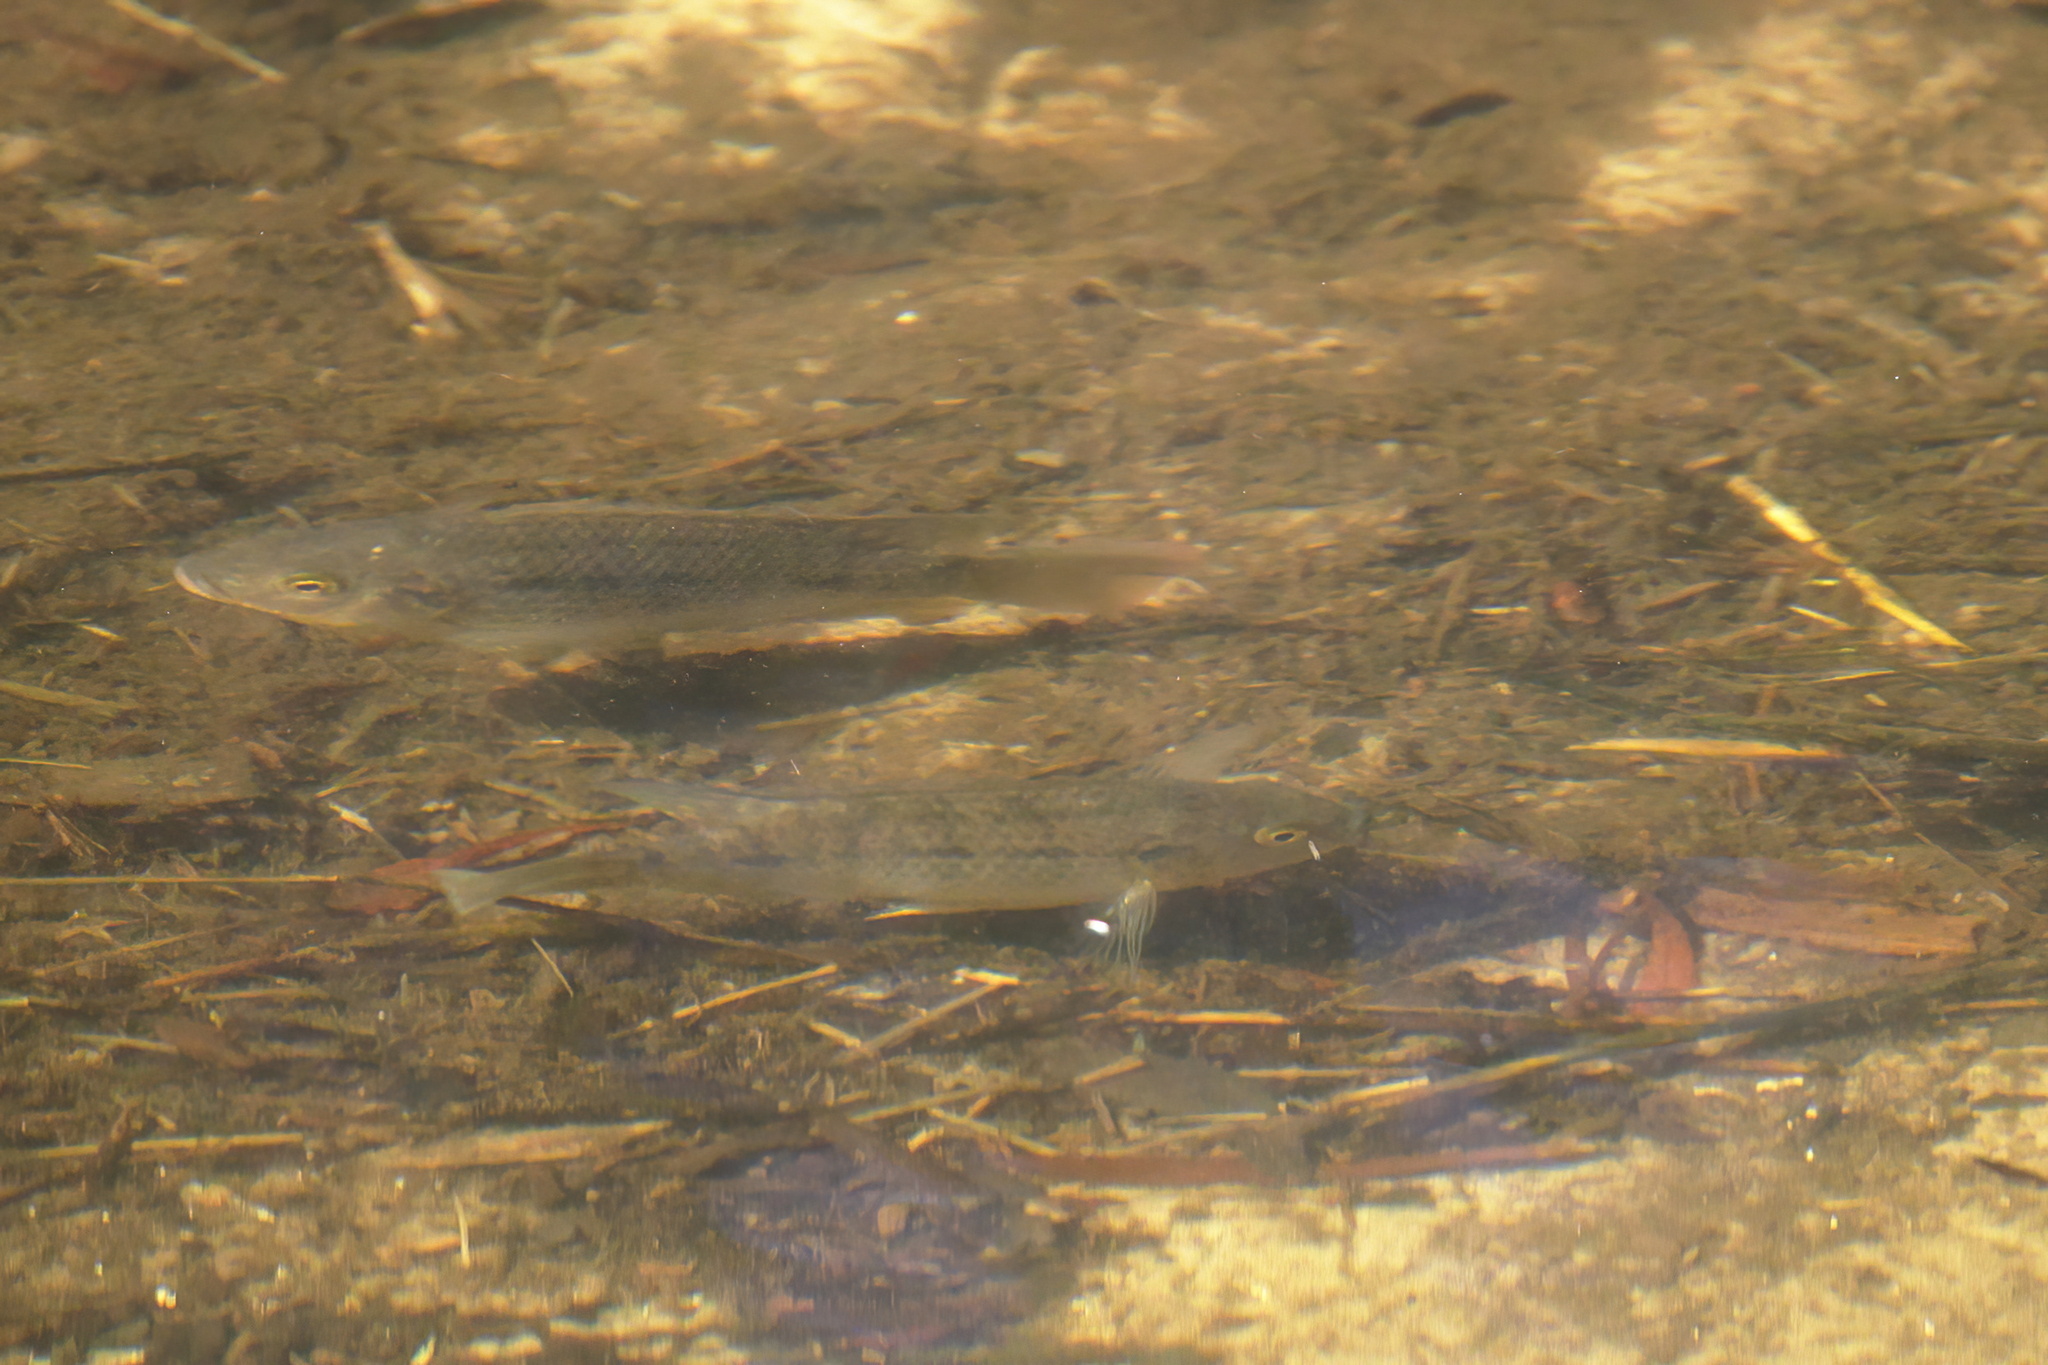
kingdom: Animalia
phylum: Chordata
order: Perciformes
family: Cichlidae
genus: Oreochromis
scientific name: Oreochromis aureus
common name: Blue tilapia
